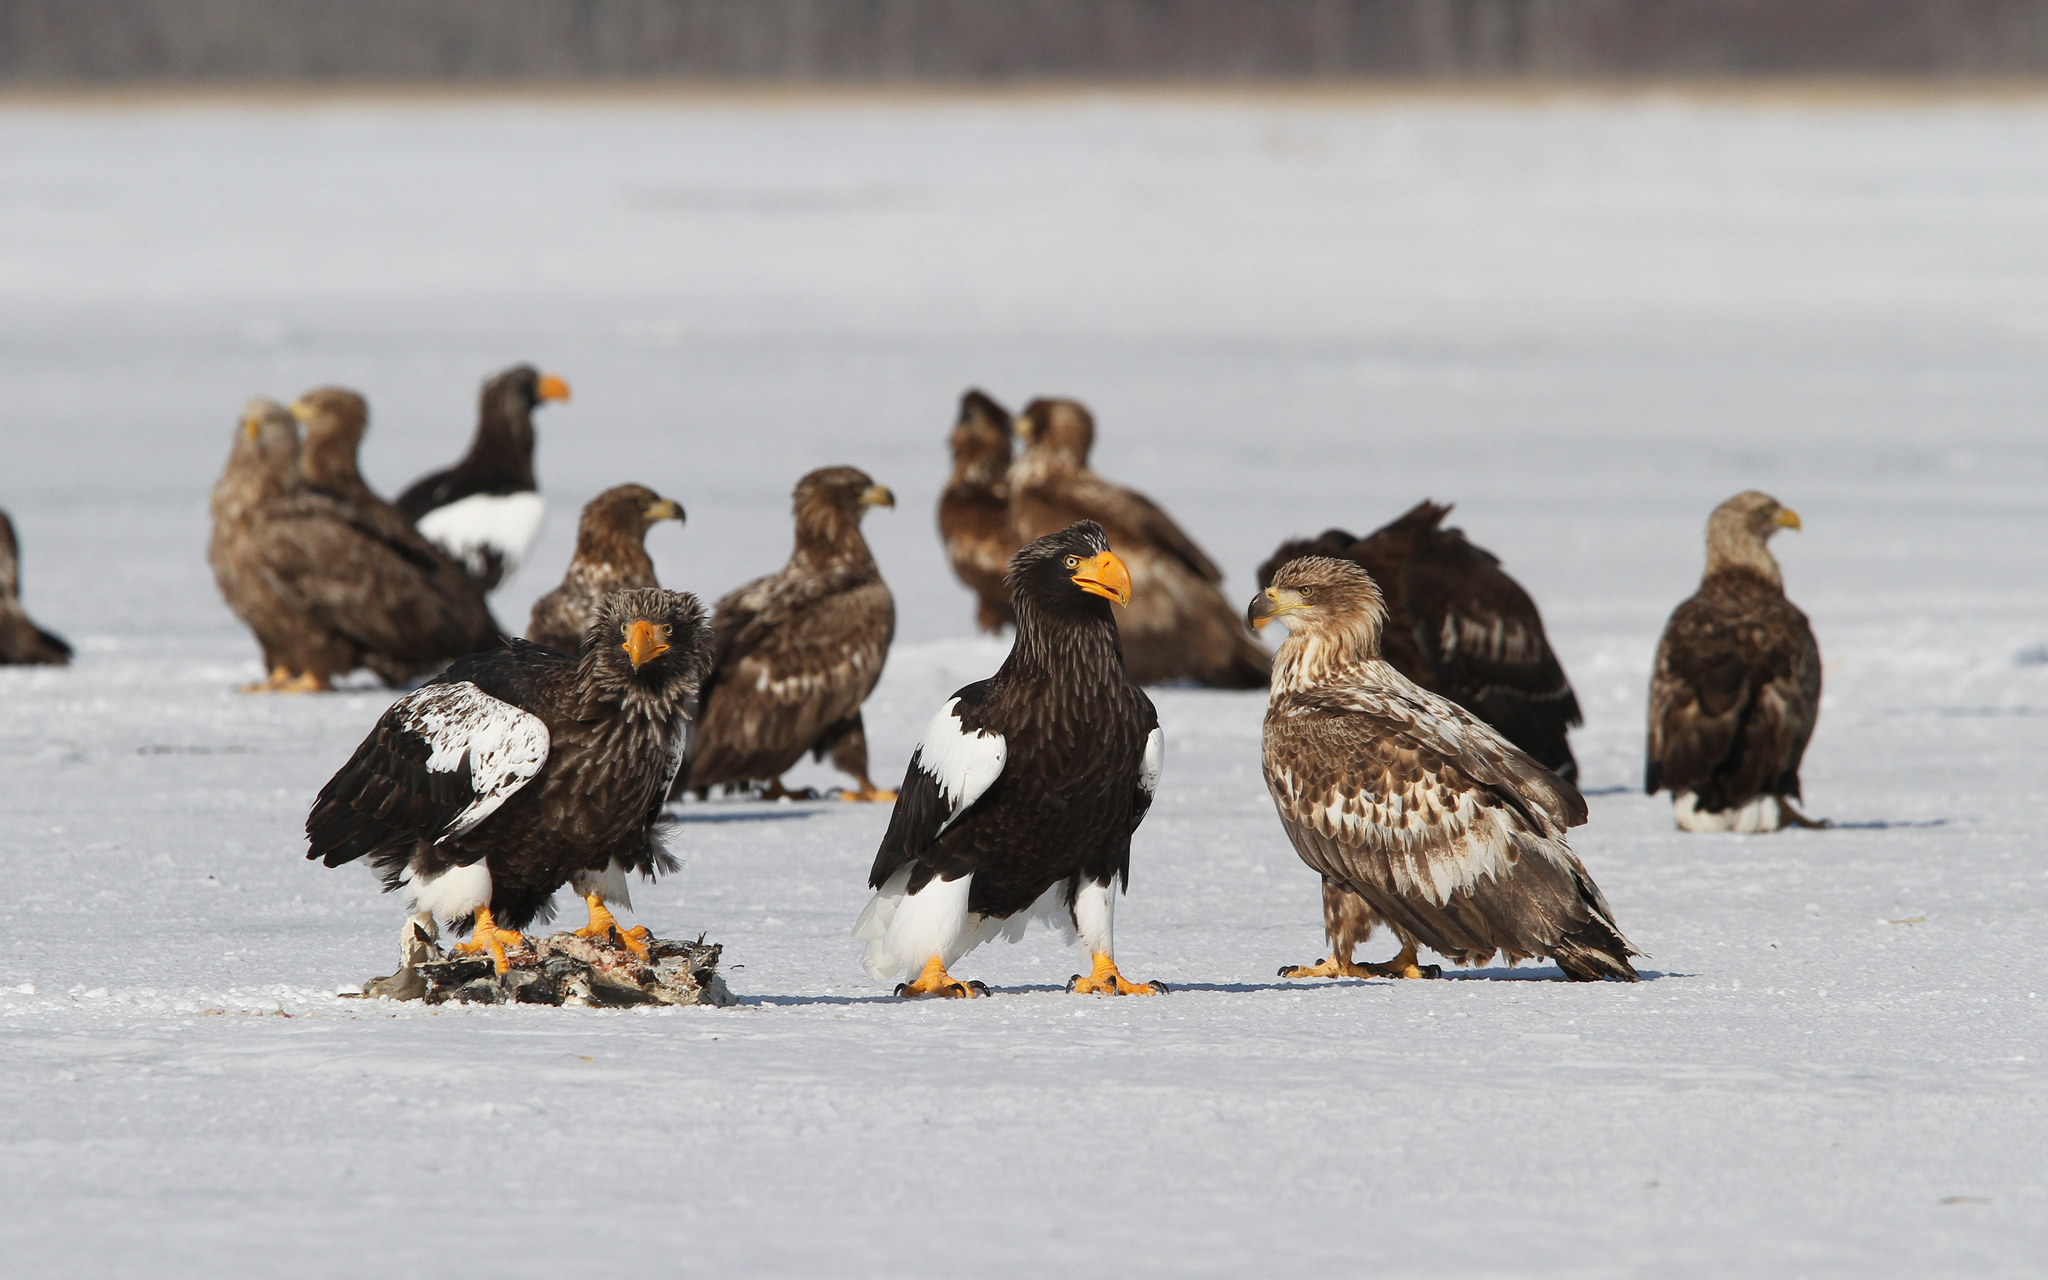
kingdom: Animalia
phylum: Chordata
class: Aves
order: Accipitriformes
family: Accipitridae
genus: Haliaeetus
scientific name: Haliaeetus pelagicus
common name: Steller's sea eagle
